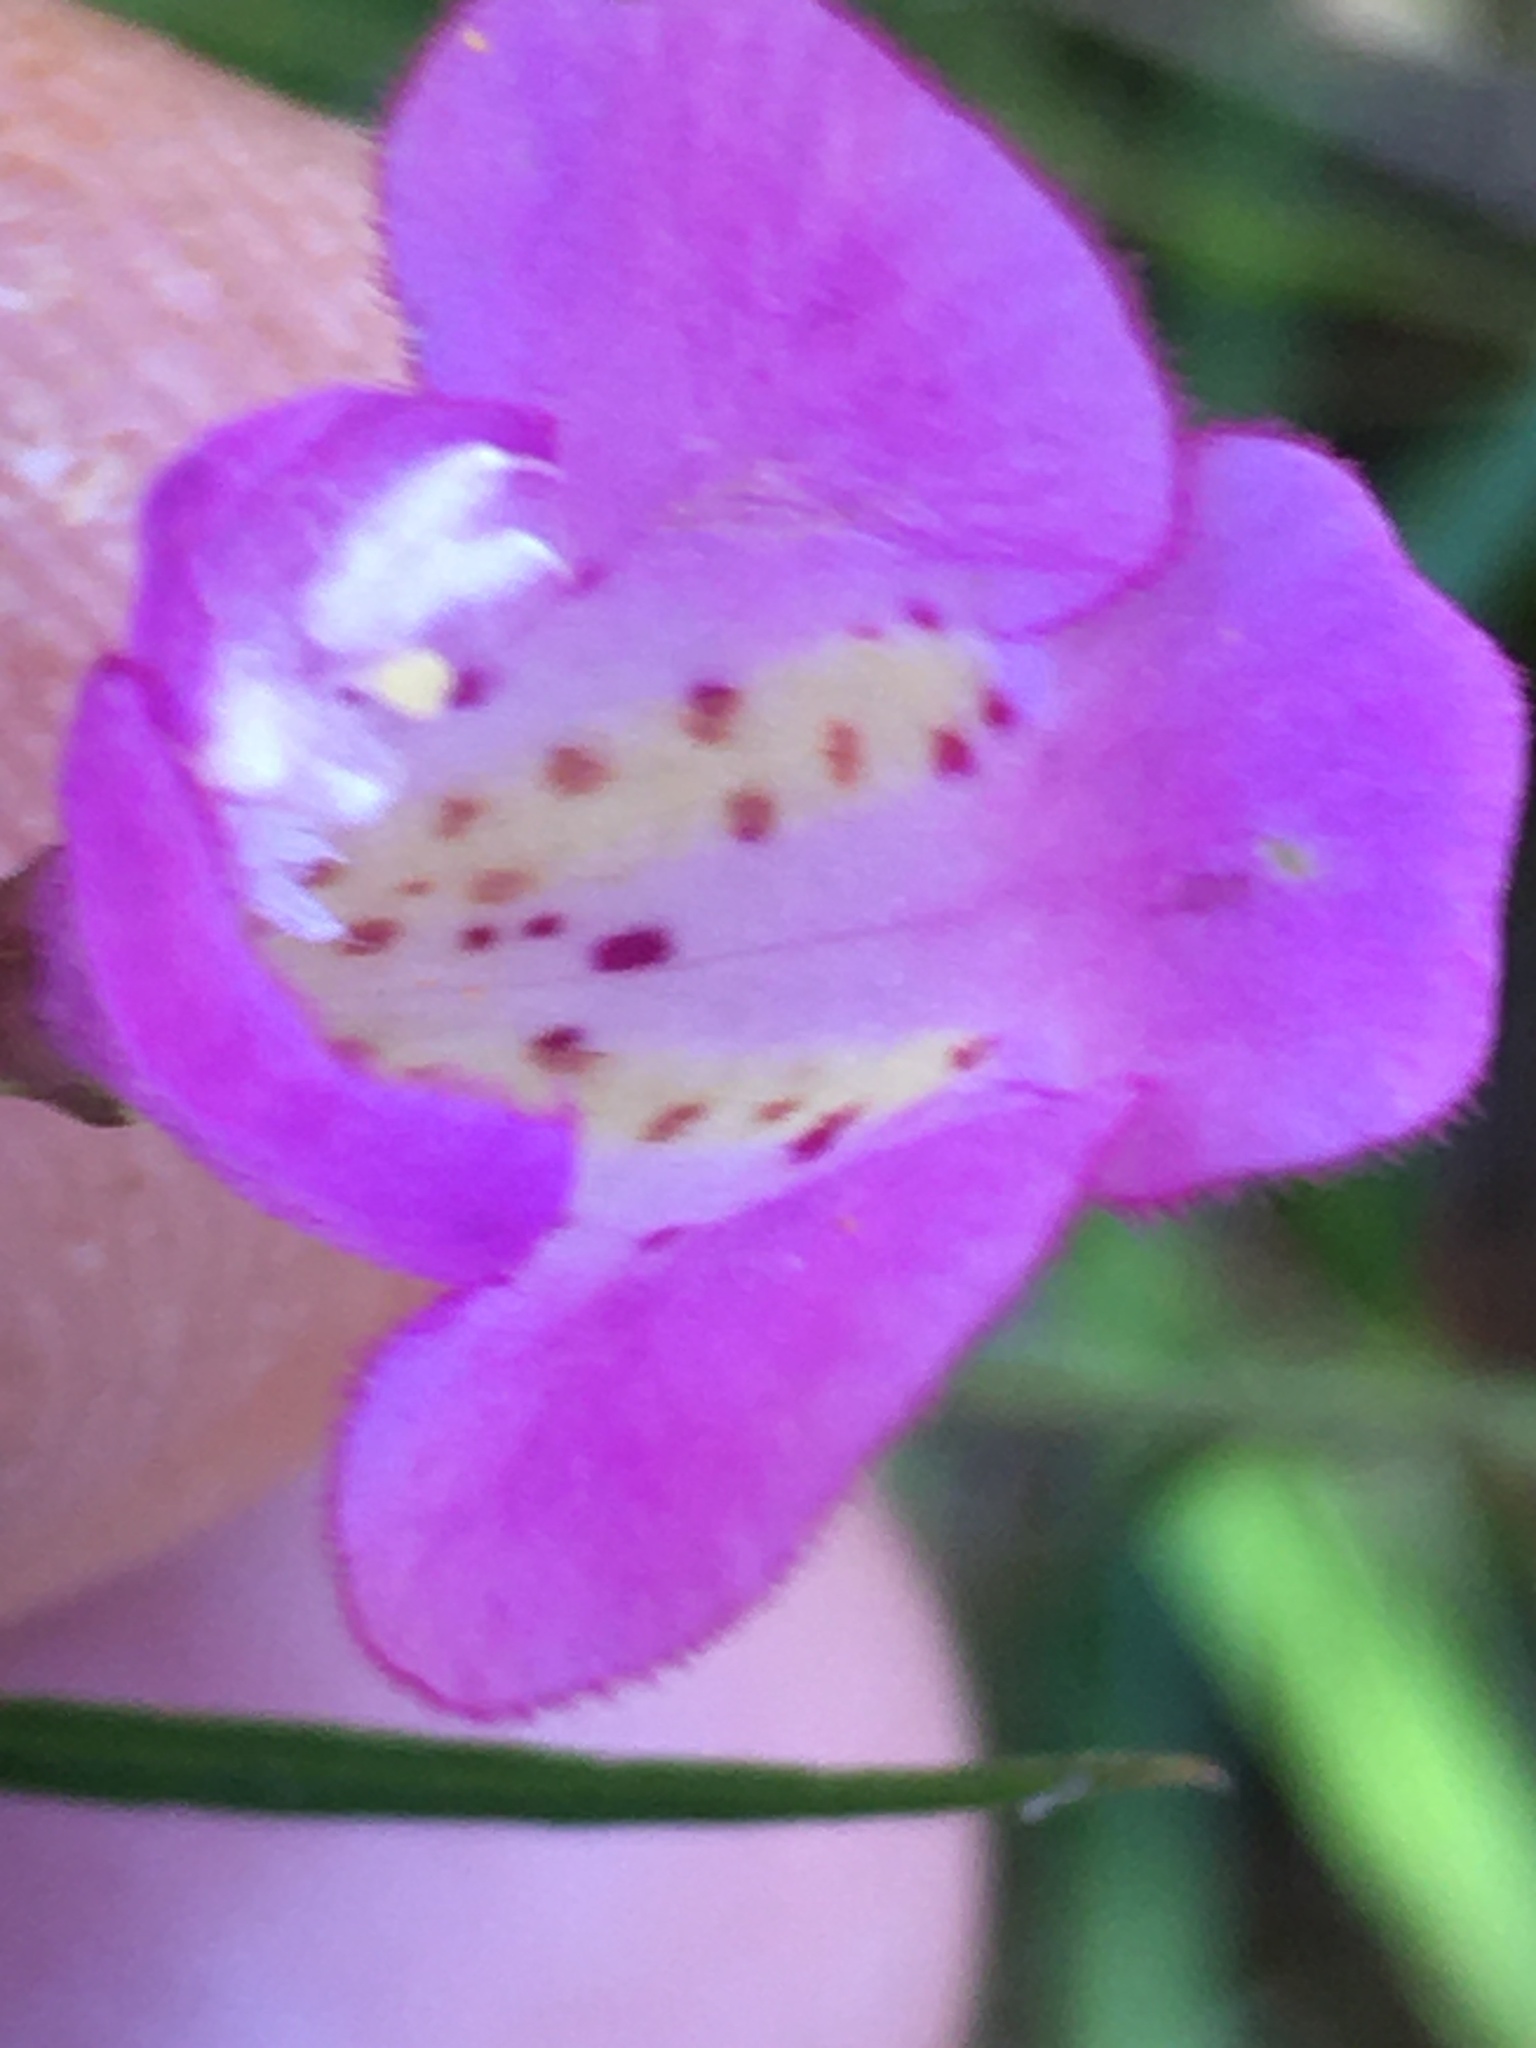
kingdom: Plantae
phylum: Tracheophyta
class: Magnoliopsida
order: Lamiales
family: Orobanchaceae
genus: Agalinis
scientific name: Agalinis tenuifolia
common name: Slender agalinis
